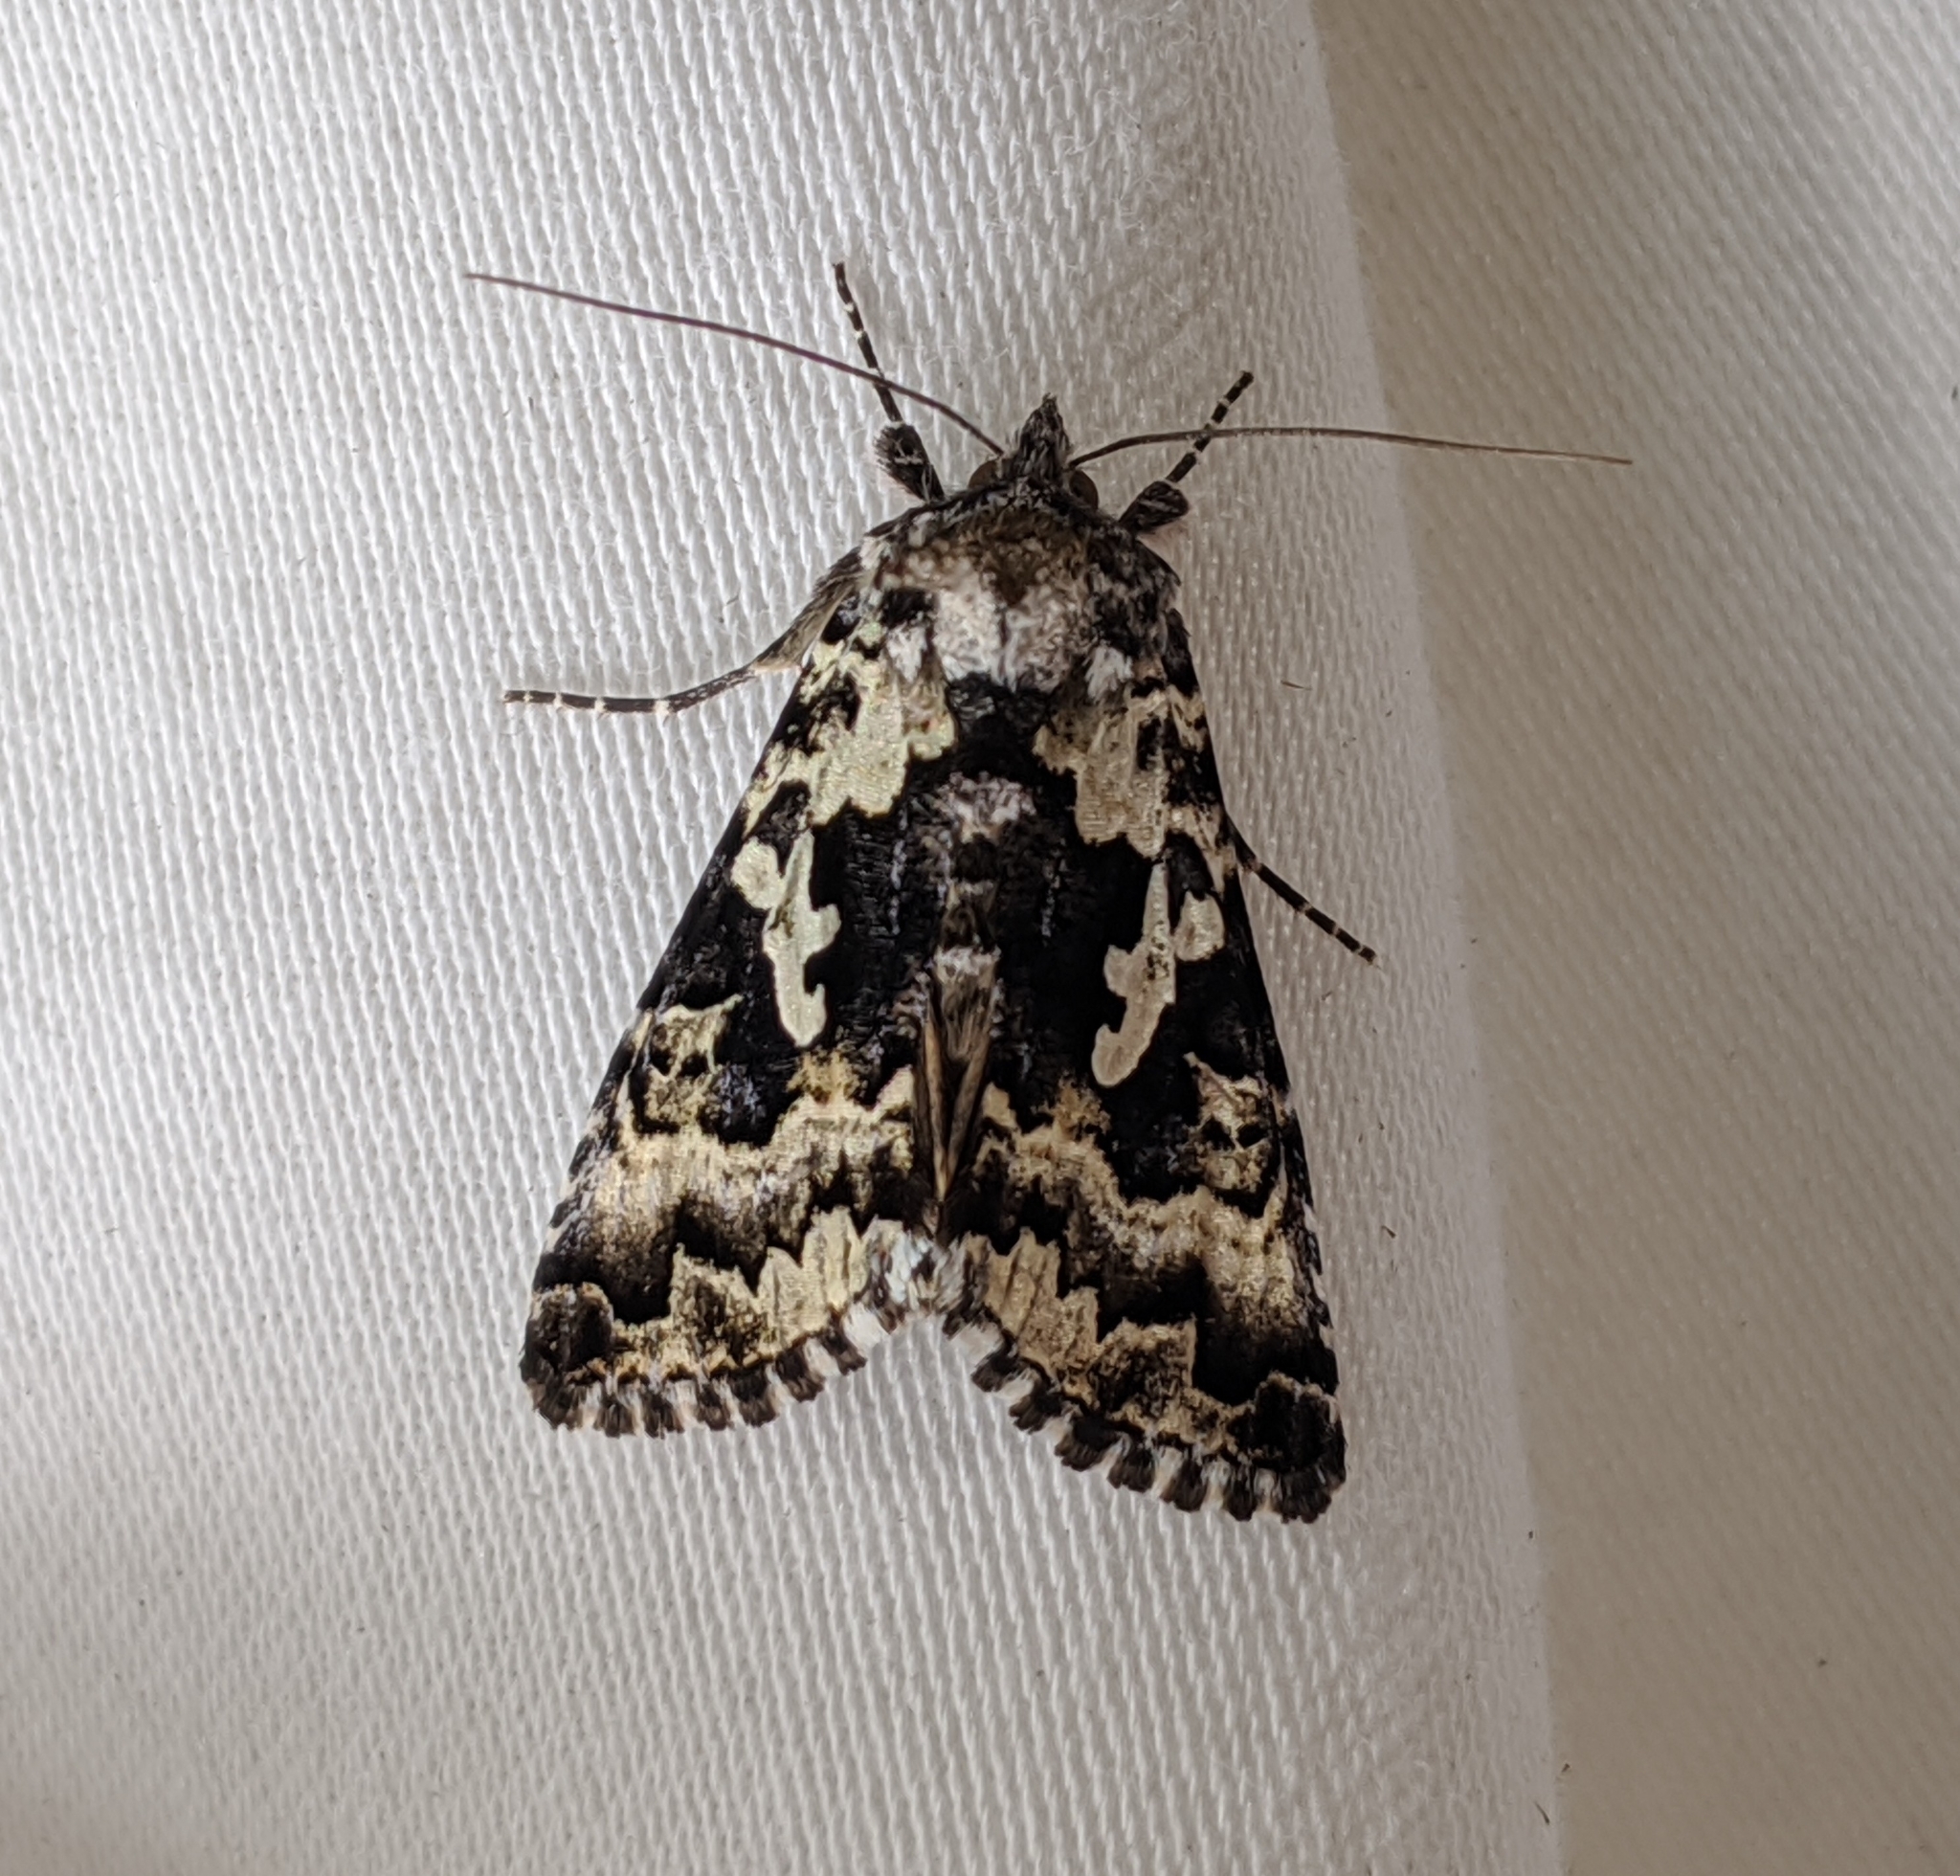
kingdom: Animalia
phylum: Arthropoda
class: Insecta
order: Lepidoptera
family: Noctuidae
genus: Syngrapha
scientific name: Syngrapha rectangula
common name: Angulated cutworm
